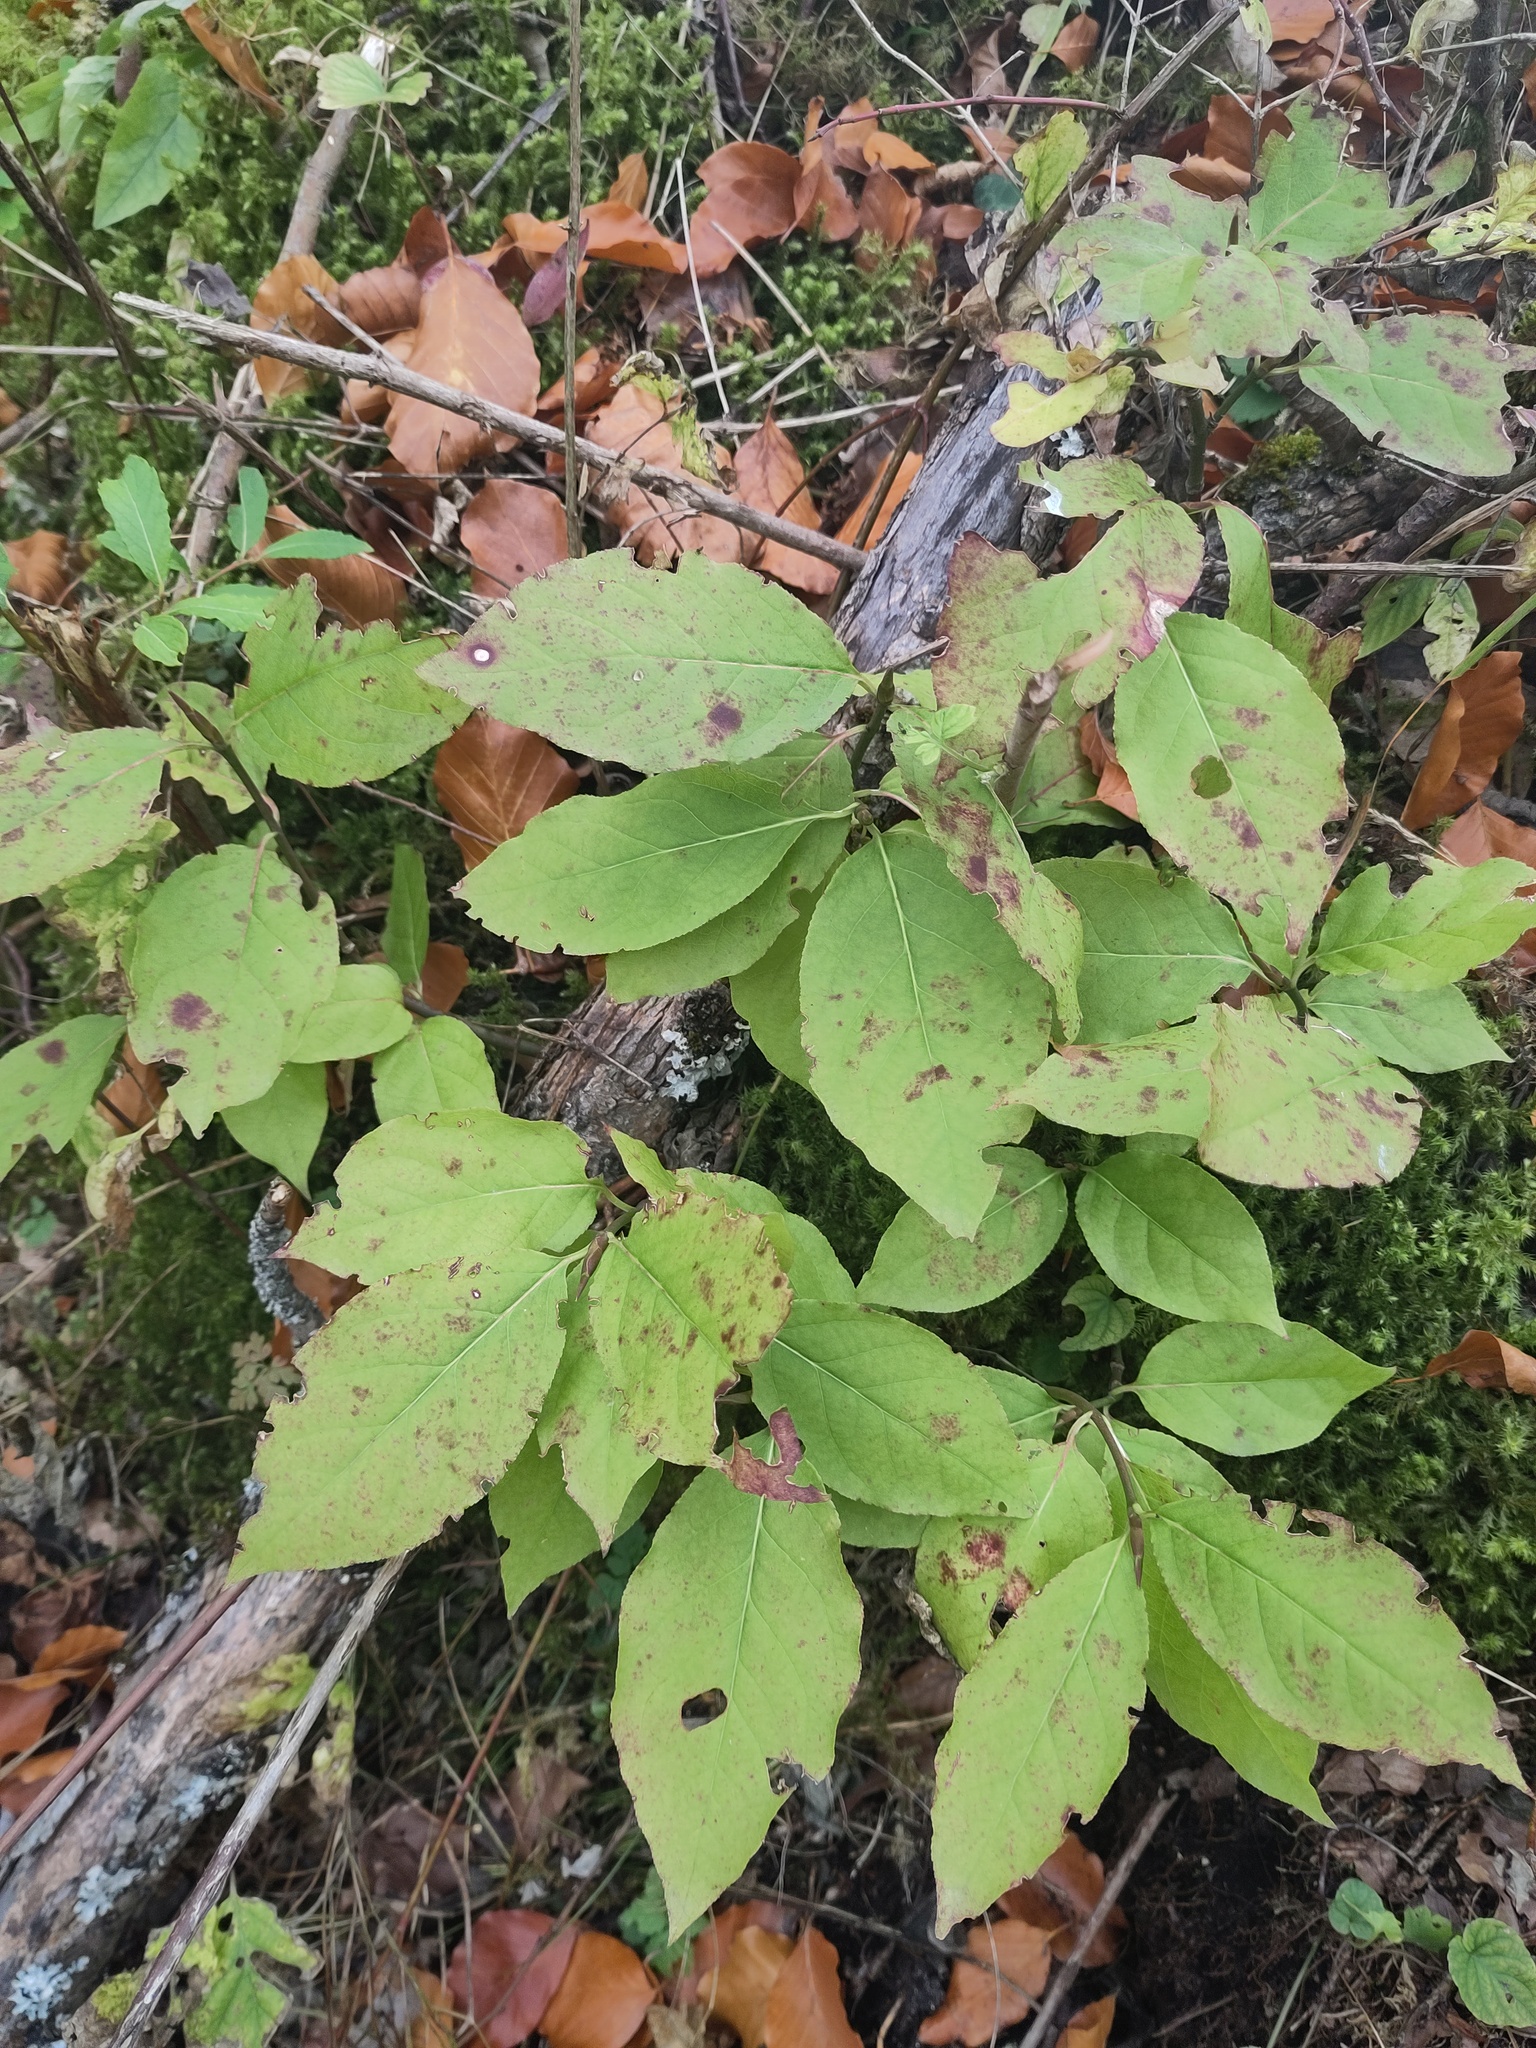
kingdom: Plantae
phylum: Tracheophyta
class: Magnoliopsida
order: Dipsacales
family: Caprifoliaceae
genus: Lonicera
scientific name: Lonicera alpigena
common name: Alpine honeysuckle
